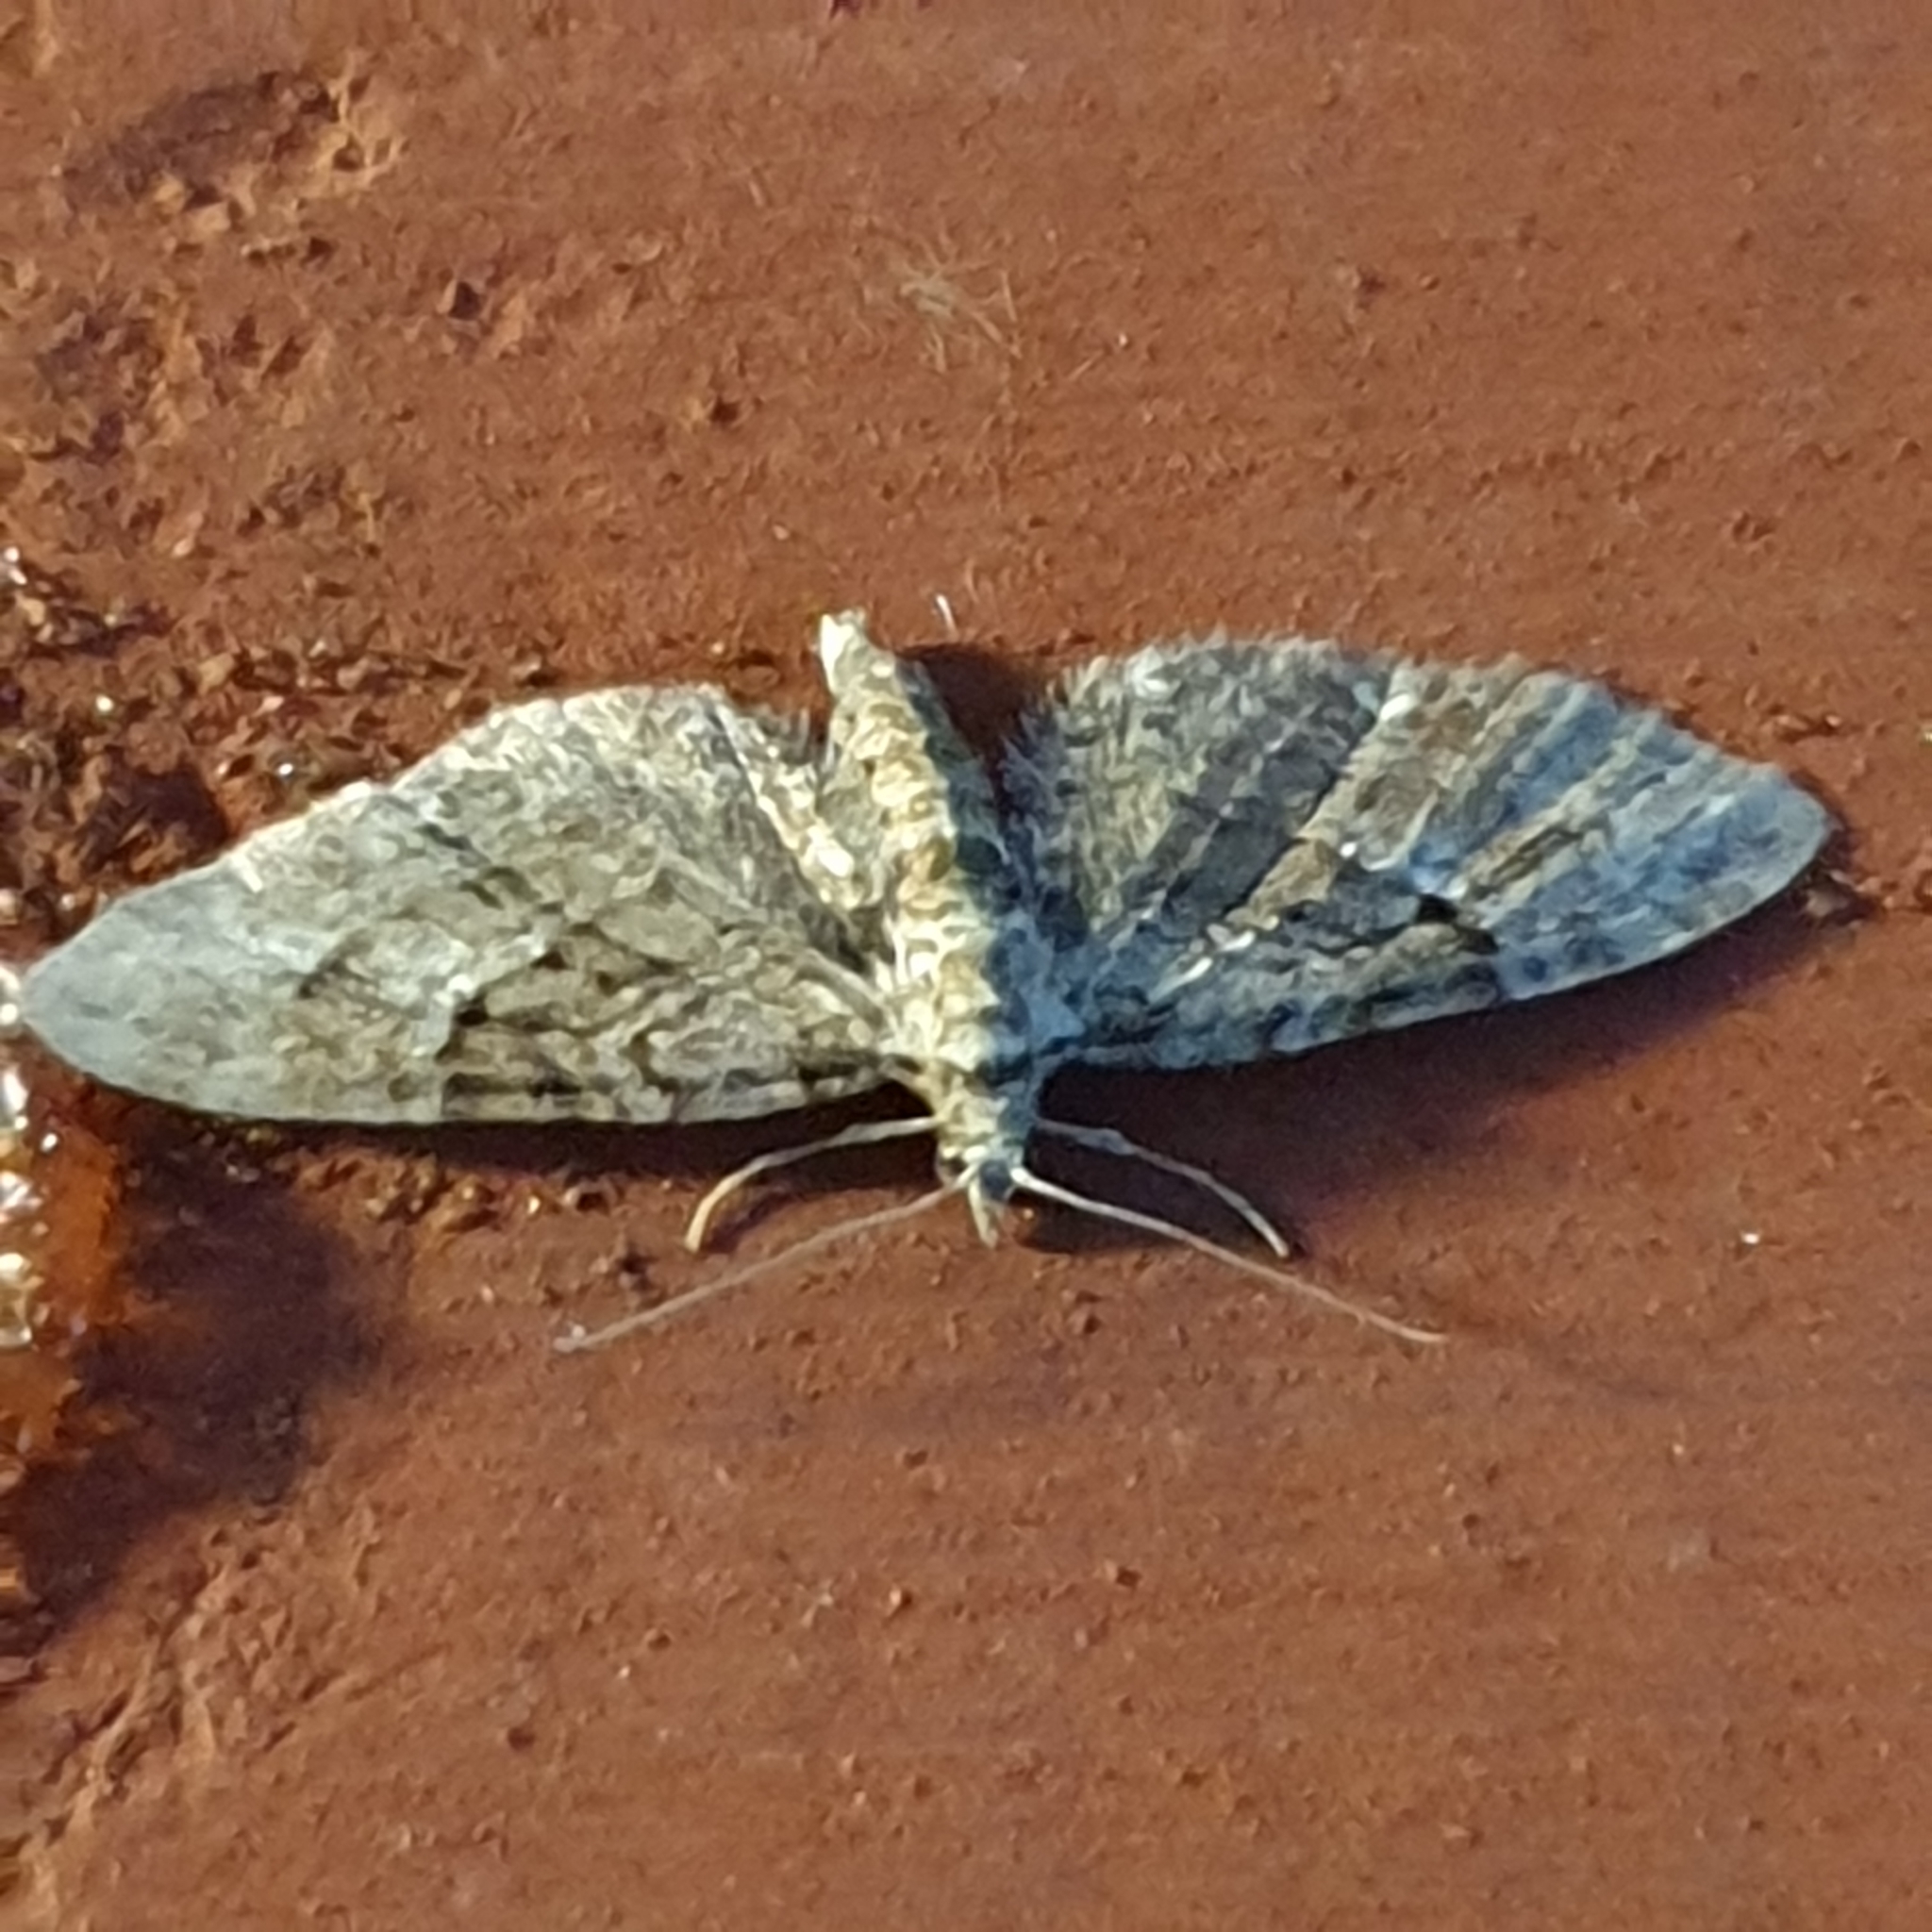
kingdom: Animalia
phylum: Arthropoda
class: Insecta
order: Lepidoptera
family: Geometridae
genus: Eupithecia
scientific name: Eupithecia pusillata
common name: Juniper pug
